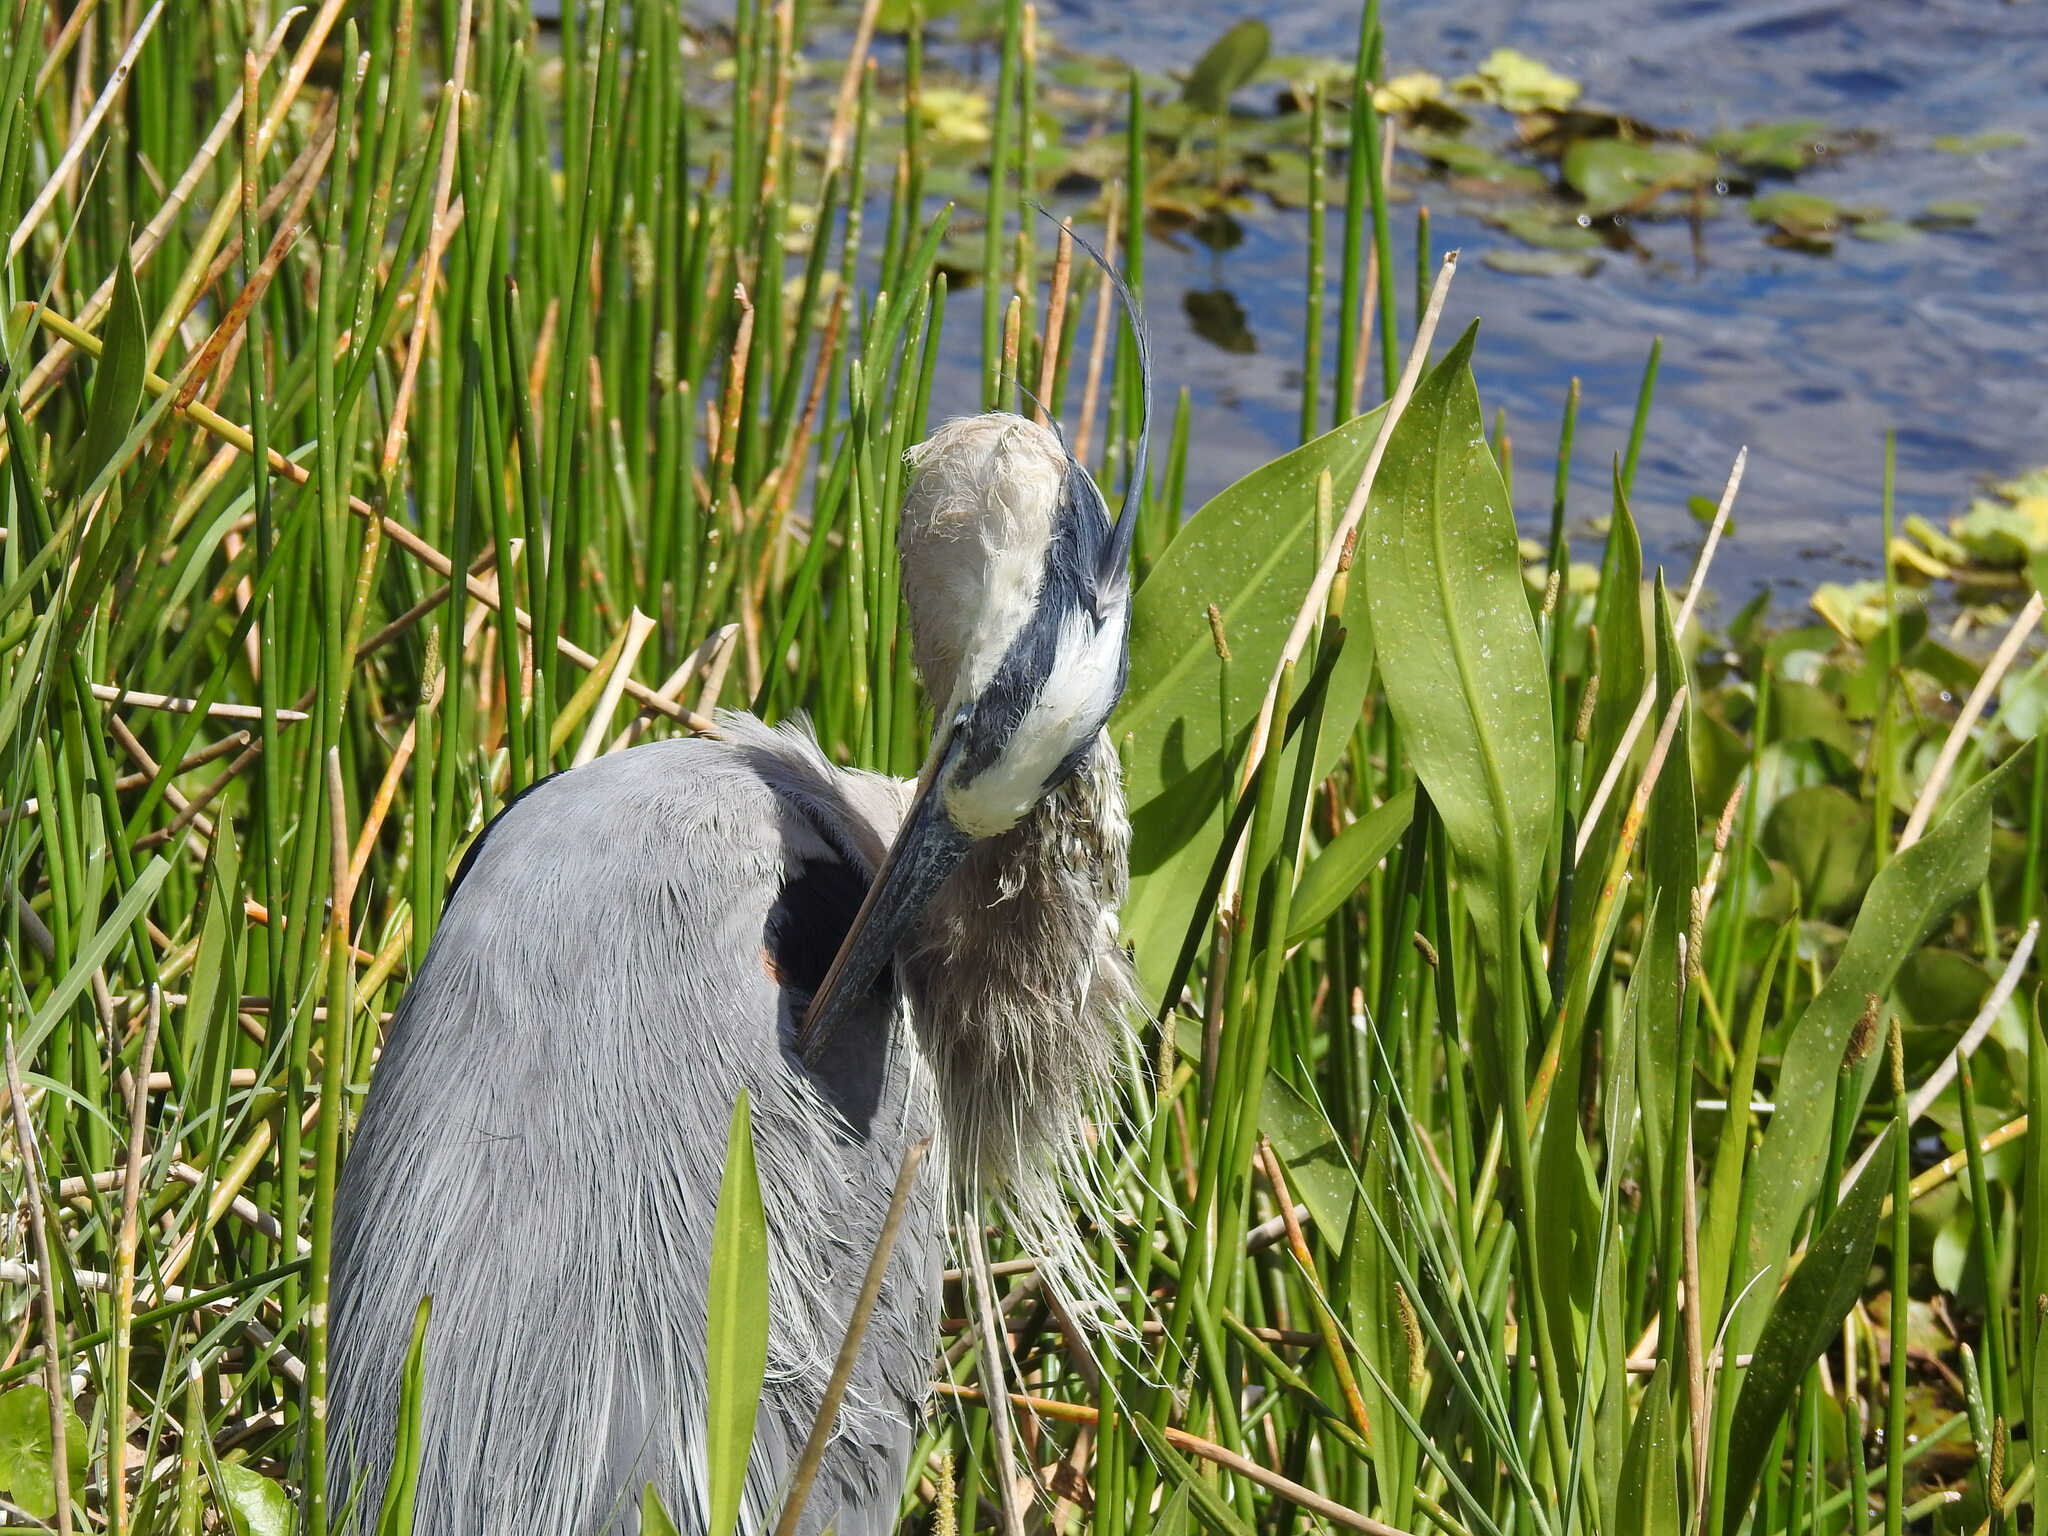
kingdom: Animalia
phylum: Chordata
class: Aves
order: Pelecaniformes
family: Ardeidae
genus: Ardea
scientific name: Ardea herodias
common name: Great blue heron
